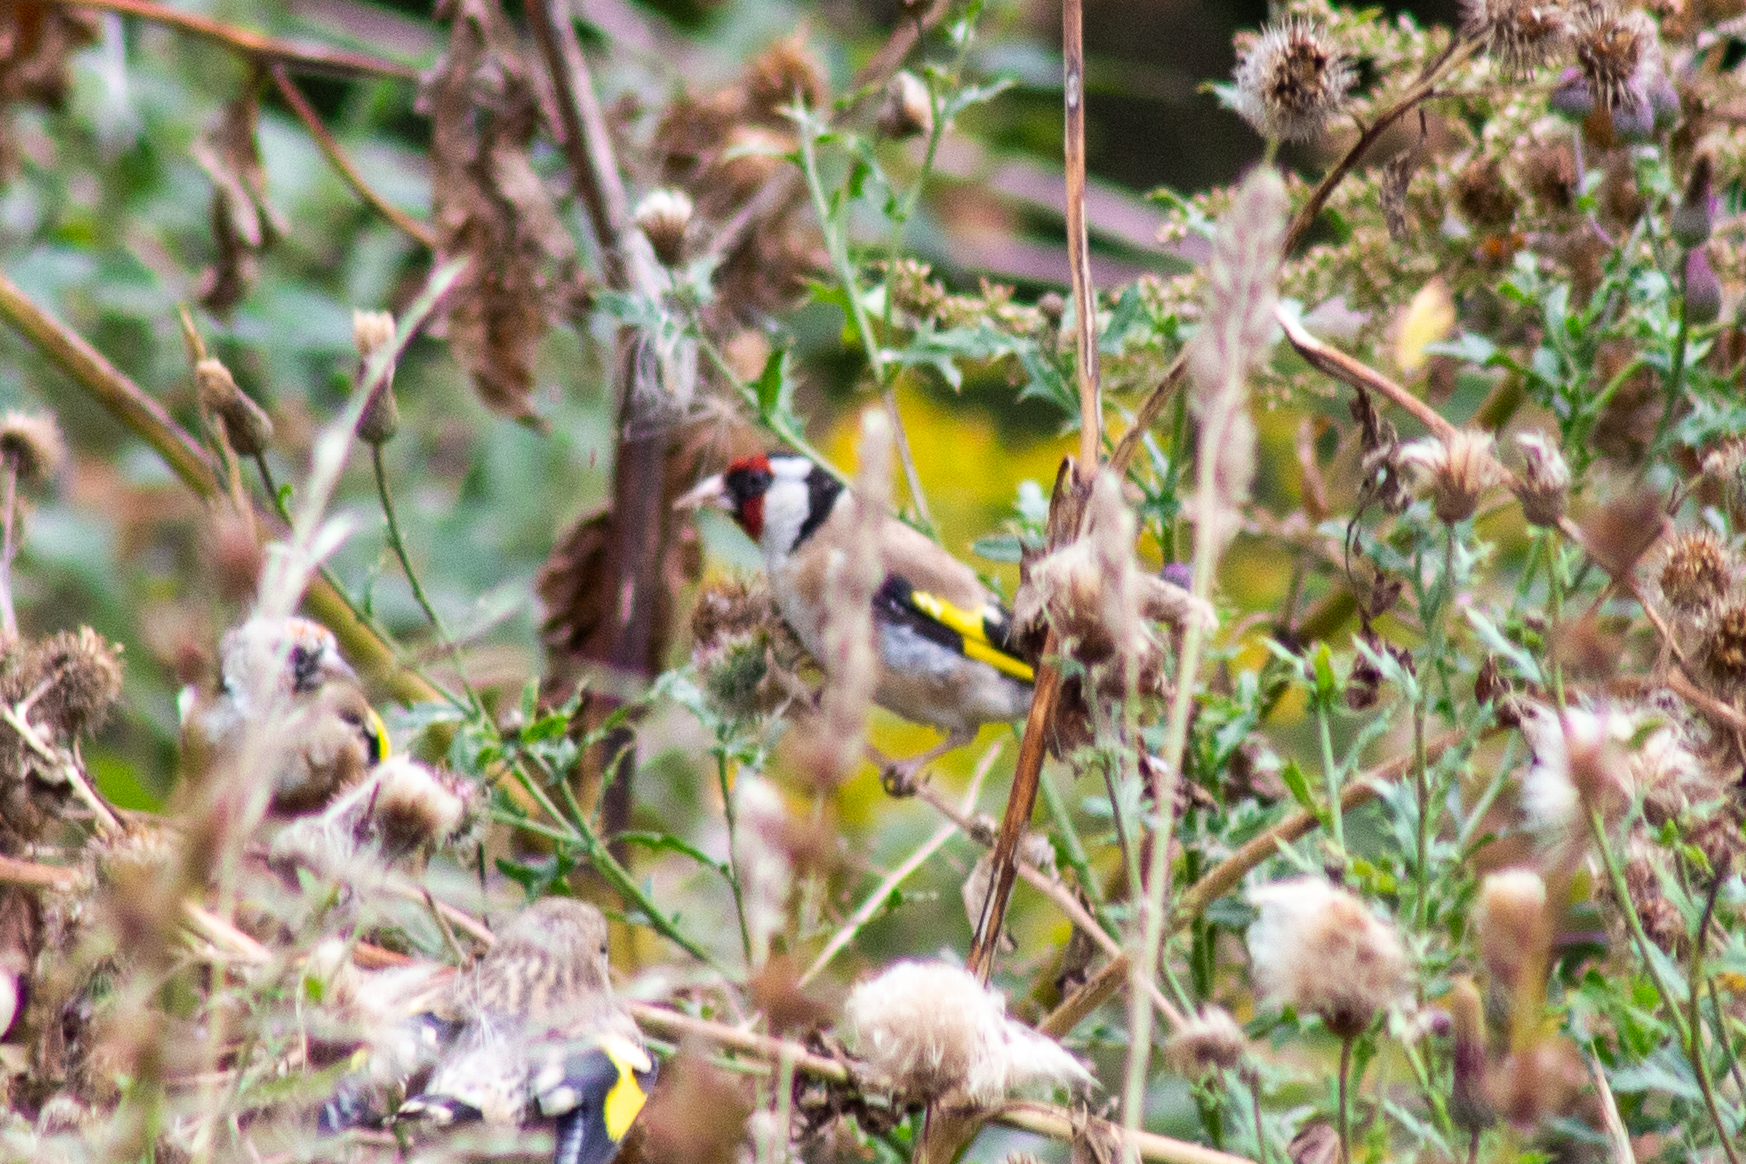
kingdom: Animalia
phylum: Chordata
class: Aves
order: Passeriformes
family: Fringillidae
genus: Carduelis
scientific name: Carduelis carduelis
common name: European goldfinch
